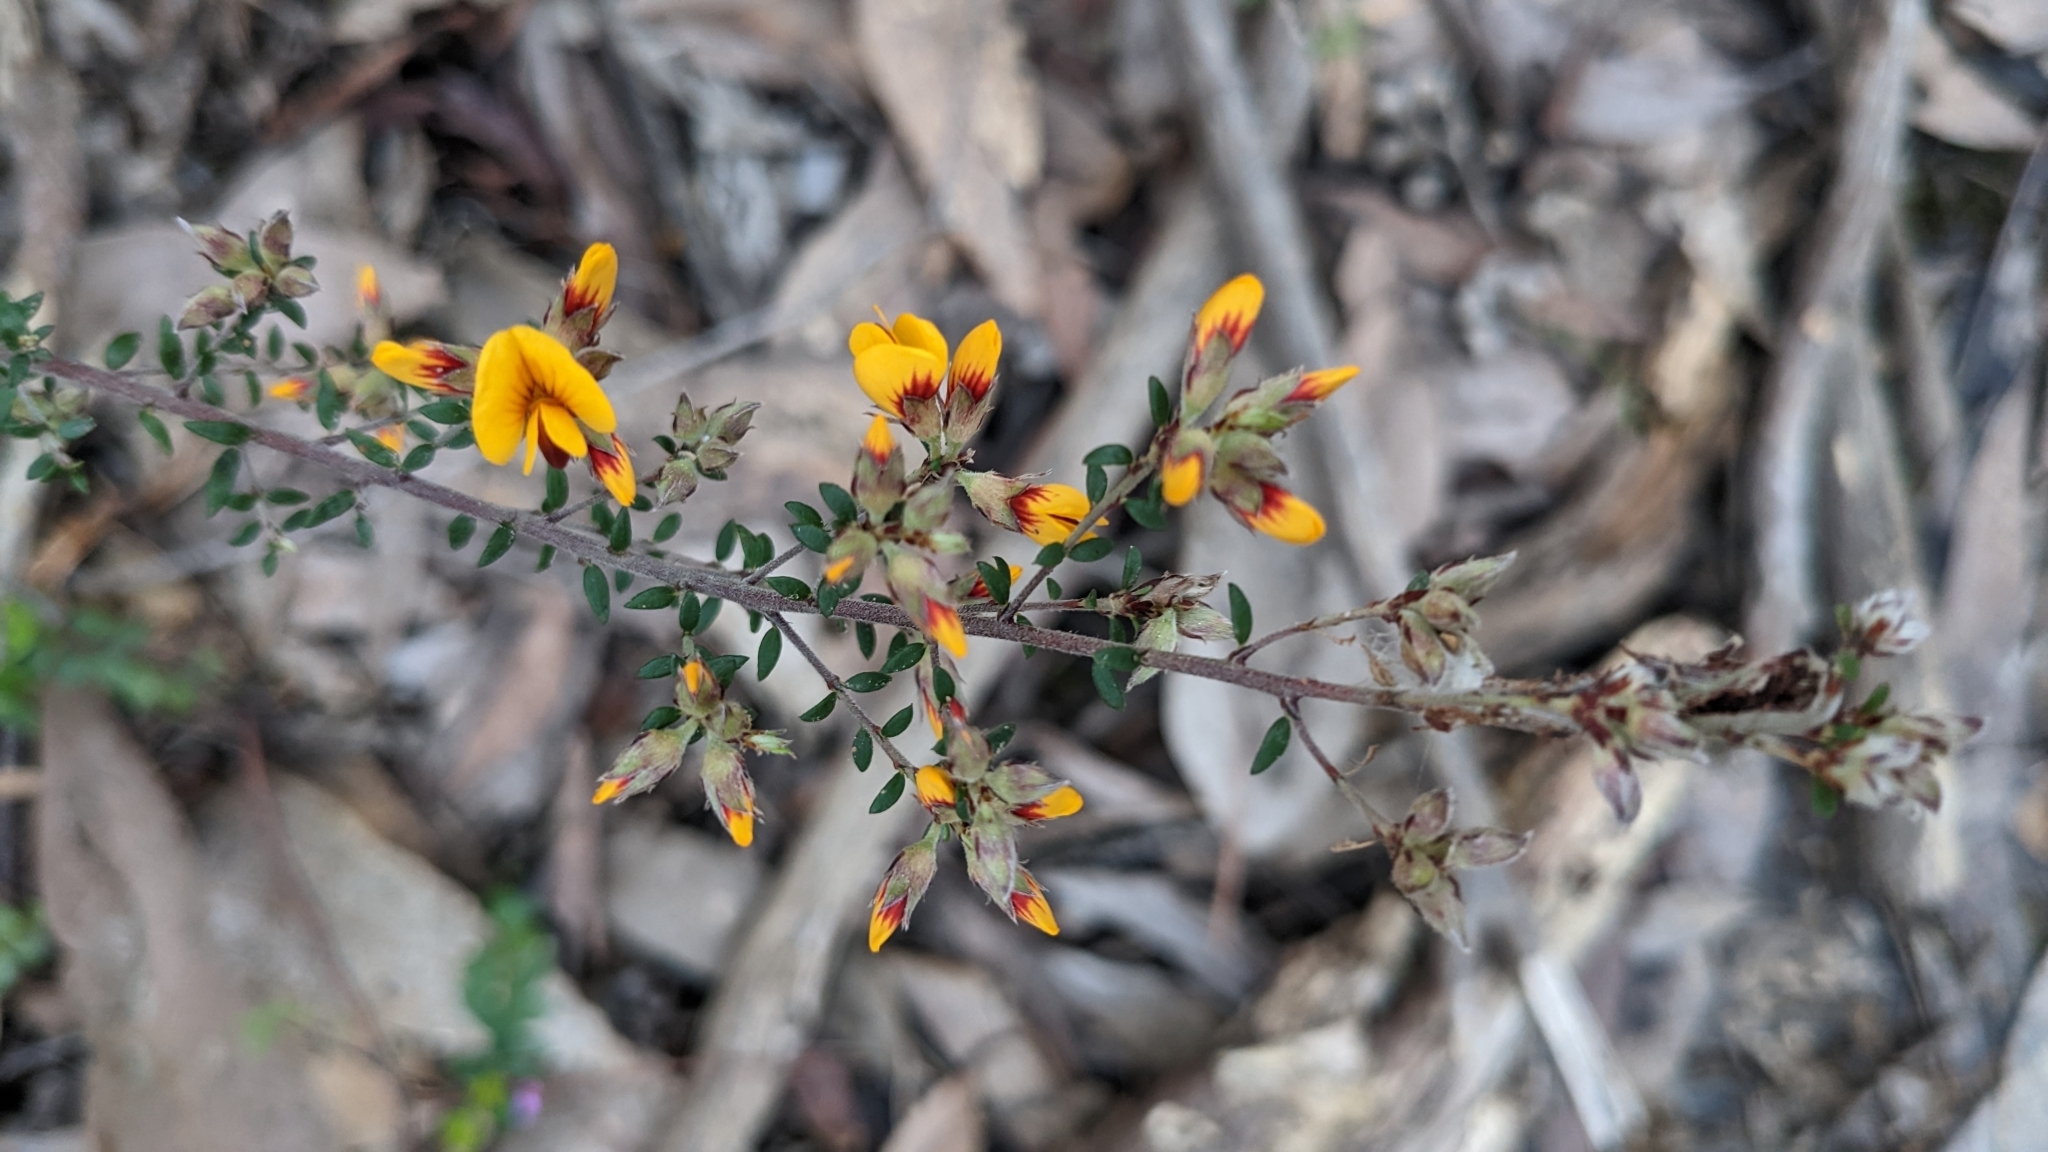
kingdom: Plantae
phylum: Tracheophyta
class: Magnoliopsida
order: Fabales
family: Fabaceae
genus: Pultenaea
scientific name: Pultenaea gunnii
